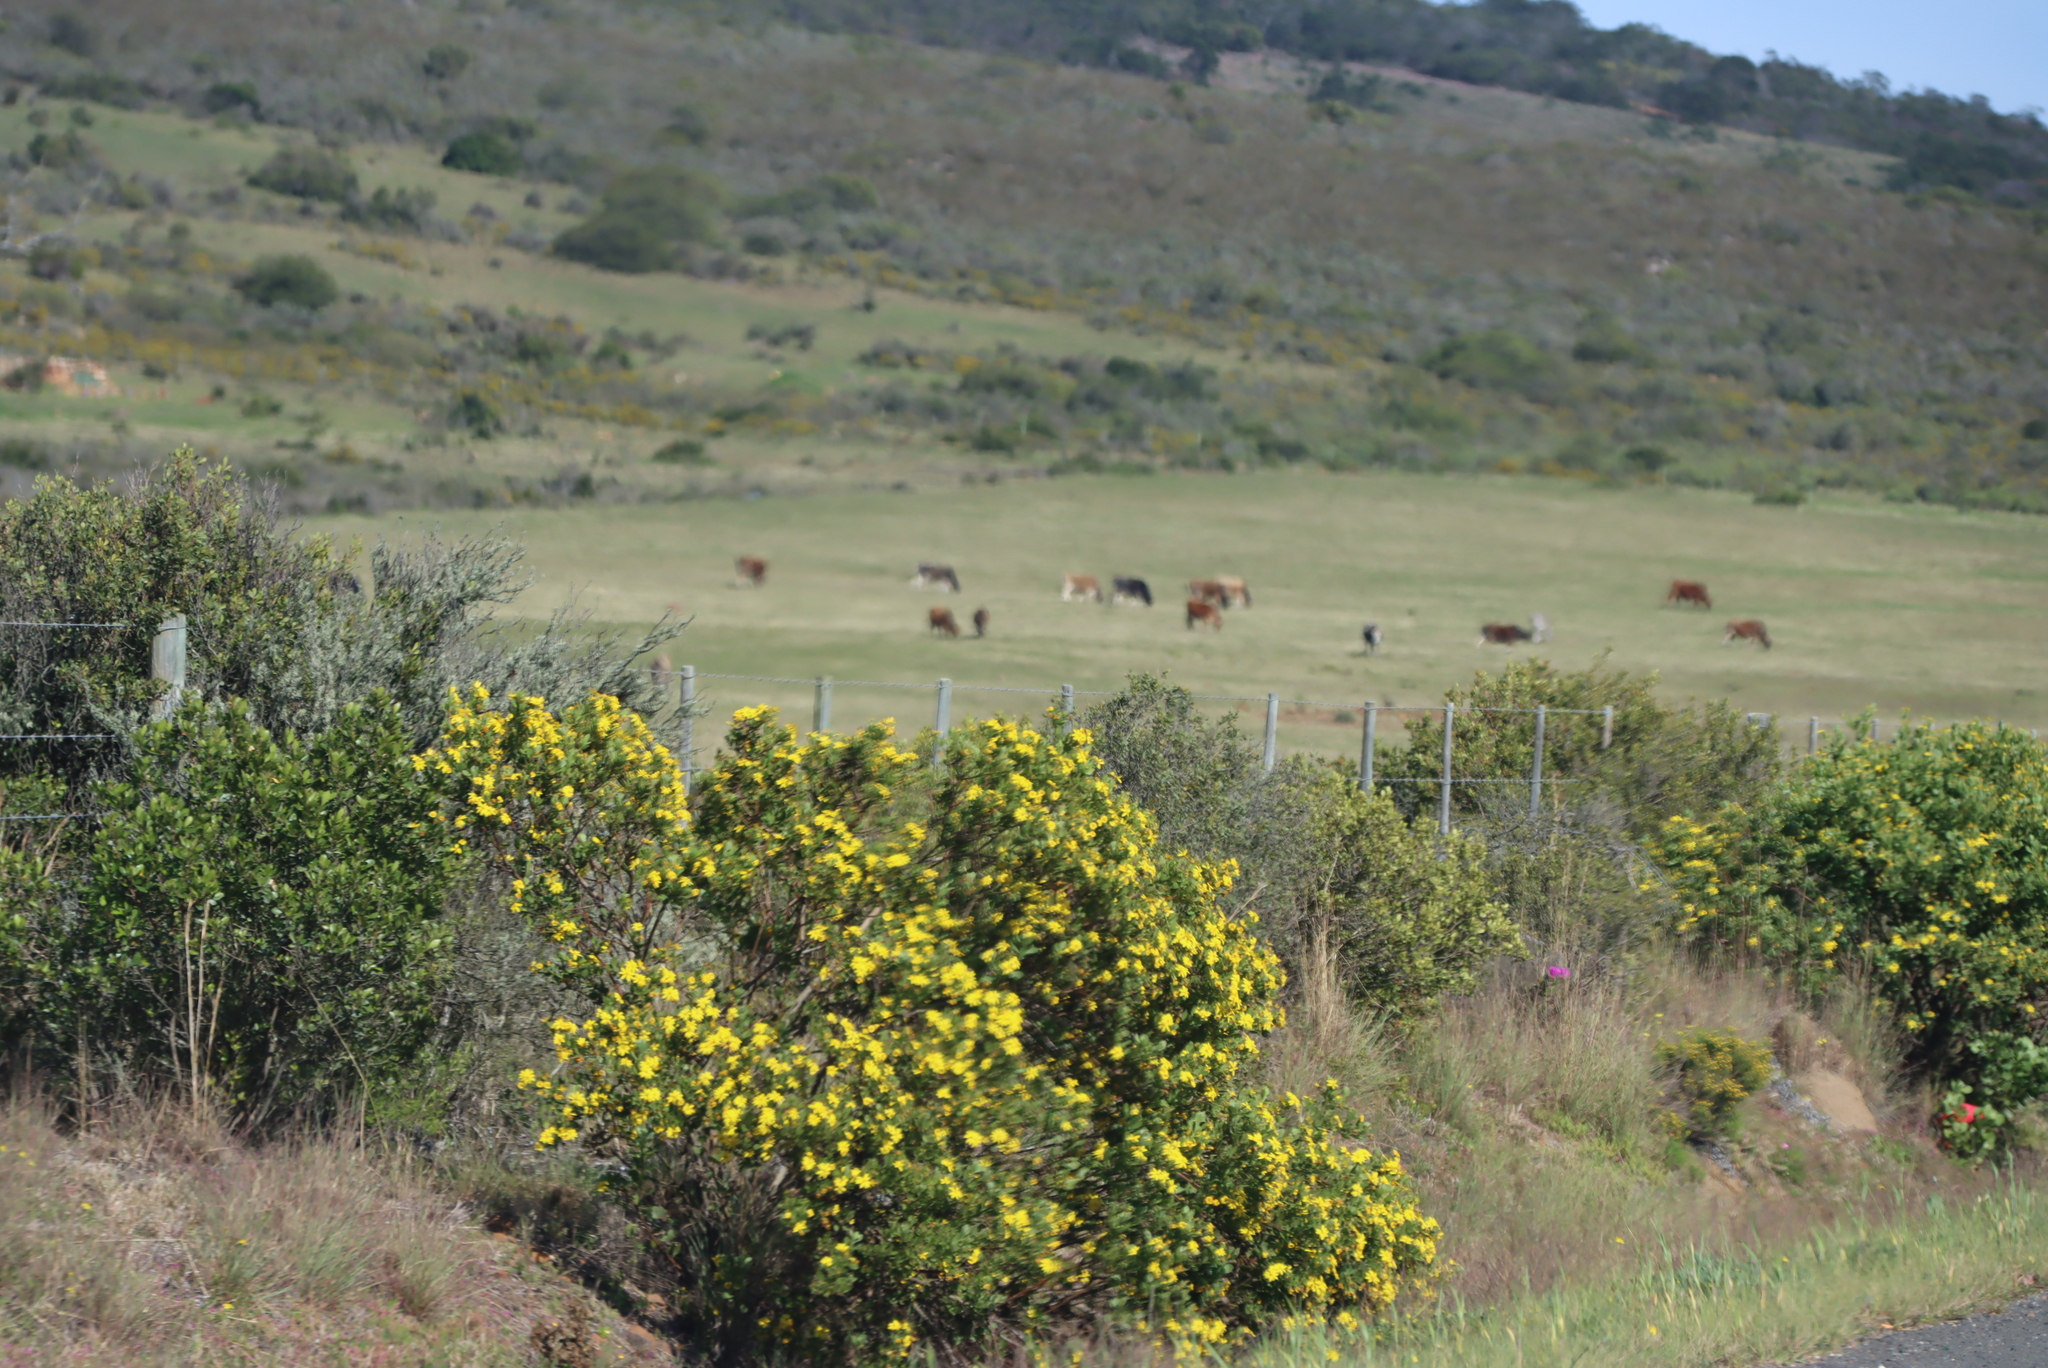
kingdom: Plantae
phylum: Tracheophyta
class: Magnoliopsida
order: Asterales
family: Asteraceae
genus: Osteospermum
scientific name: Osteospermum moniliferum
